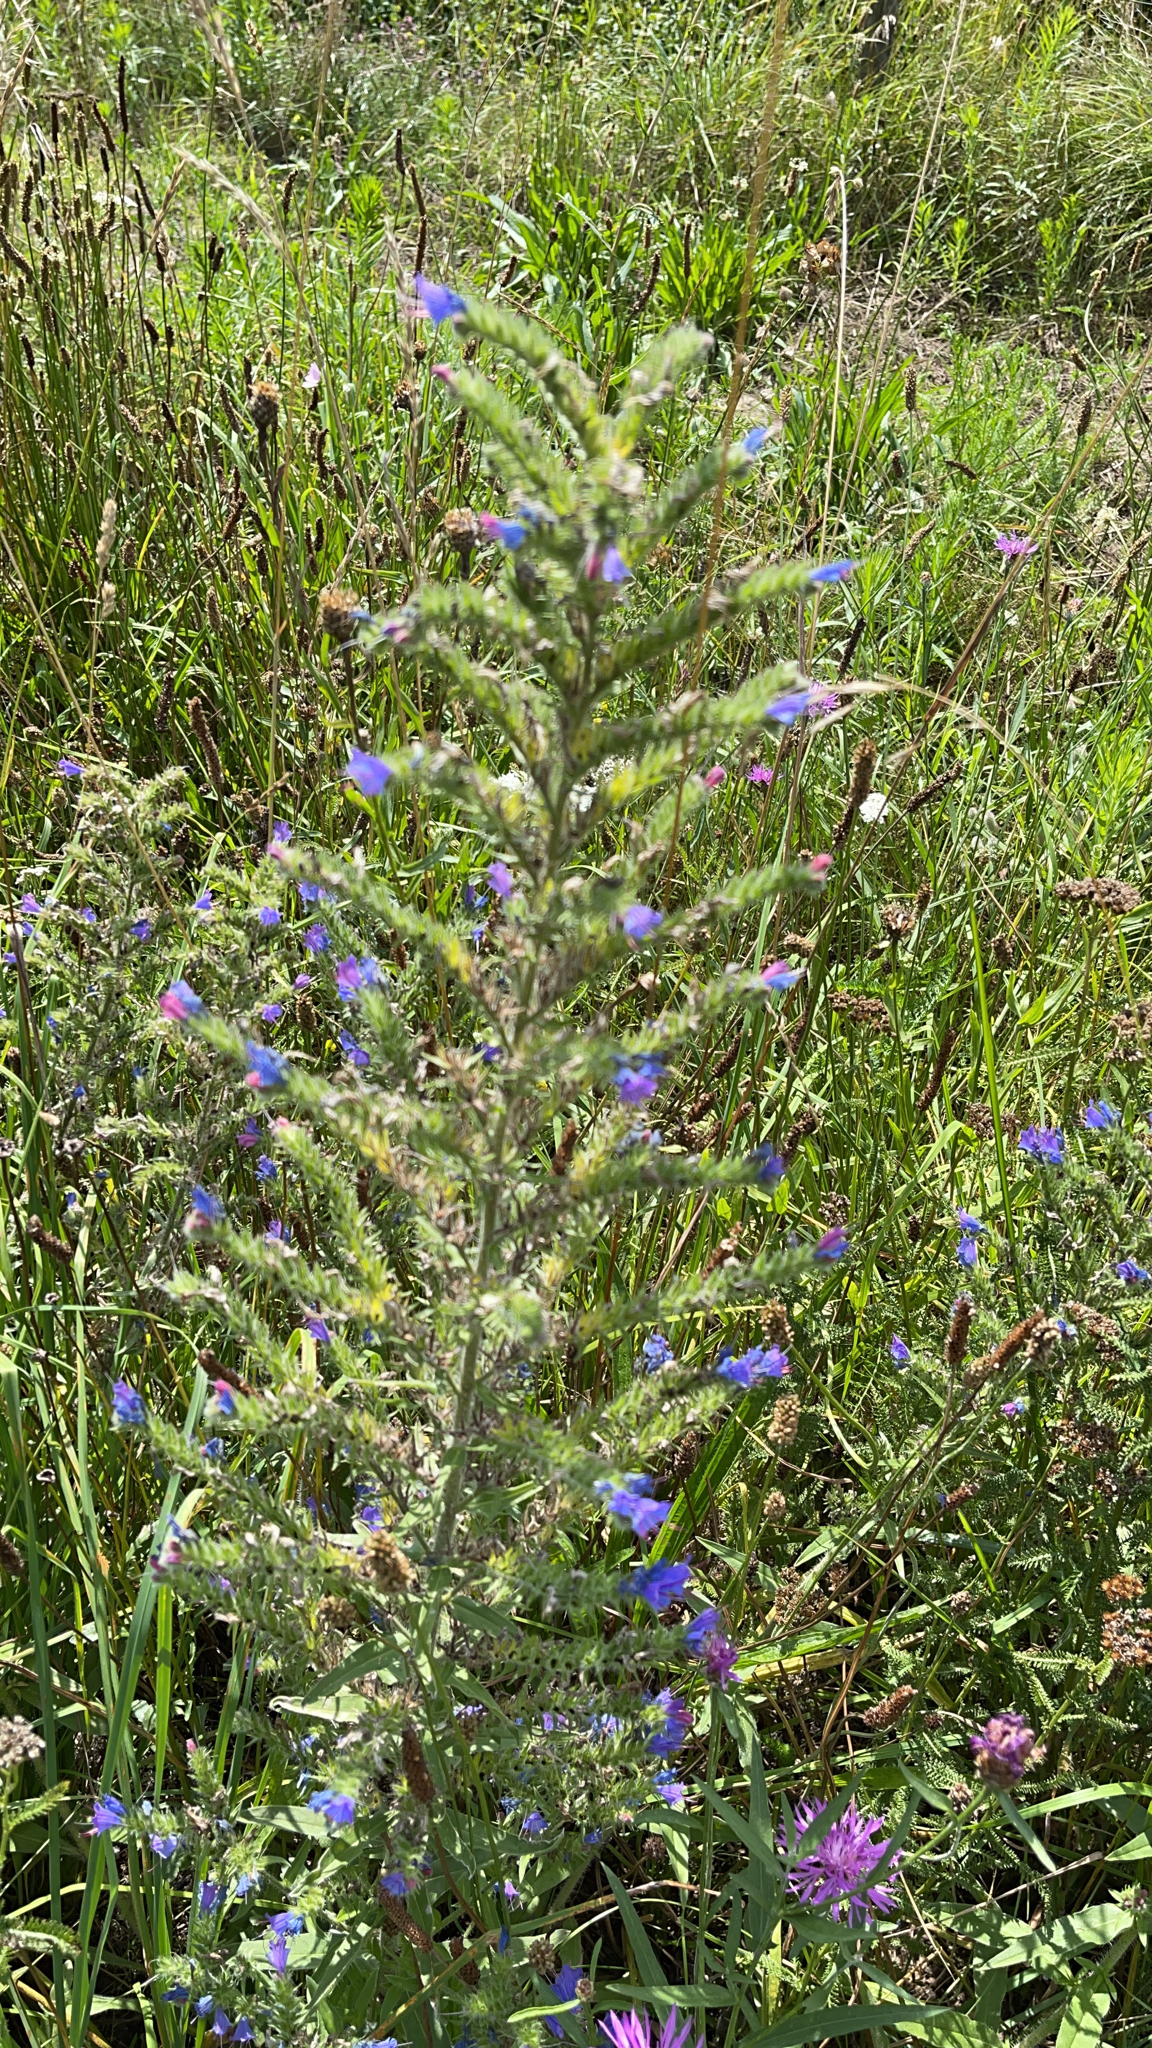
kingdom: Plantae
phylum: Tracheophyta
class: Magnoliopsida
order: Boraginales
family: Boraginaceae
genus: Echium
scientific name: Echium vulgare
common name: Common viper's bugloss
